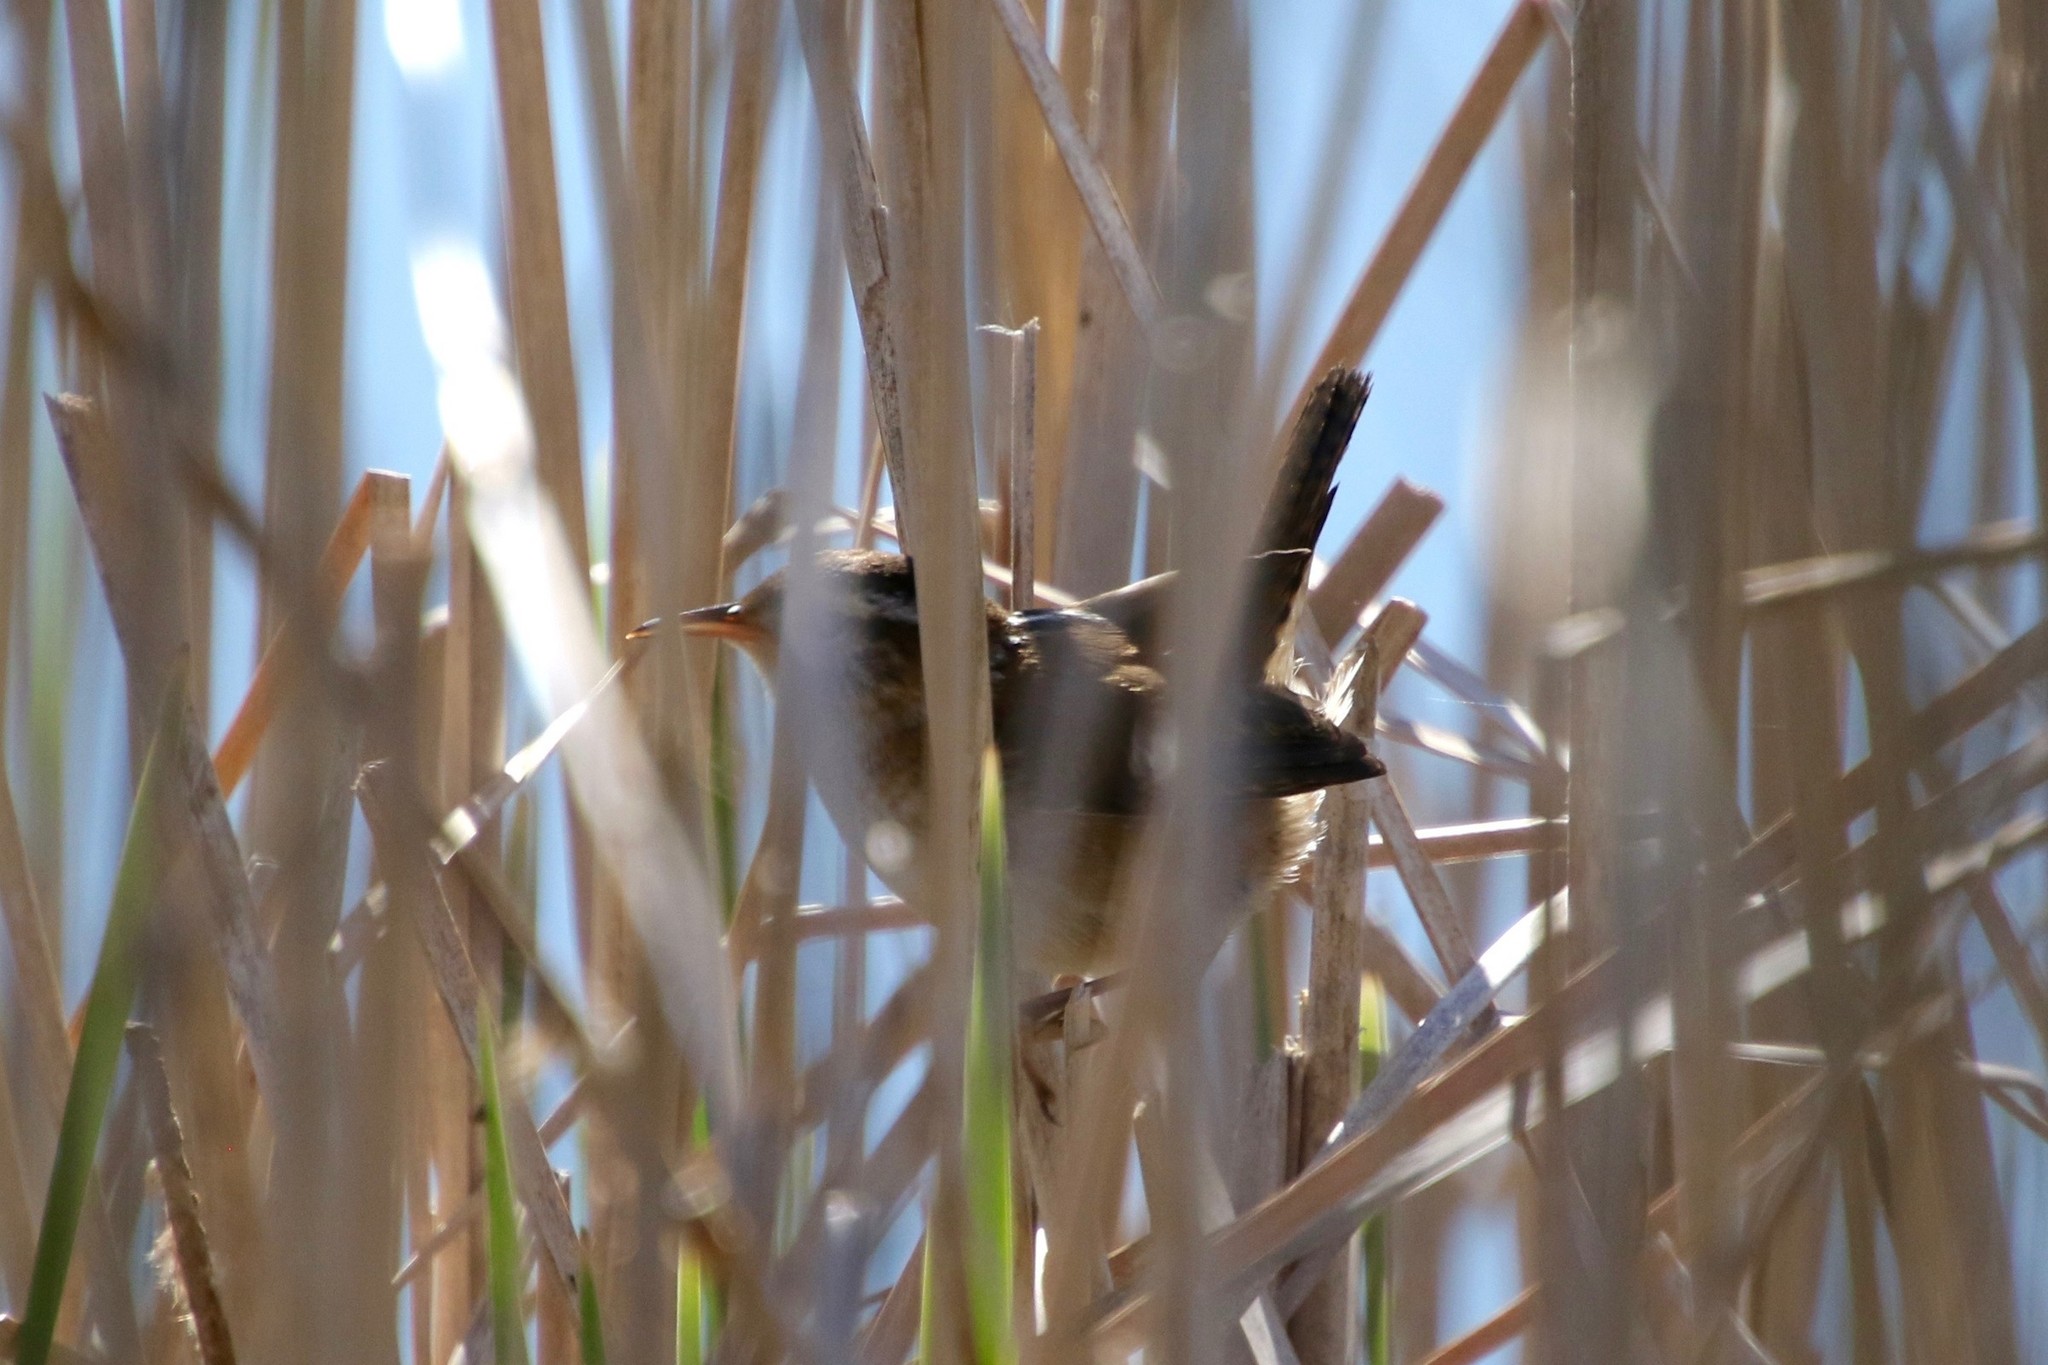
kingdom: Animalia
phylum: Chordata
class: Aves
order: Passeriformes
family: Troglodytidae
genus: Cistothorus
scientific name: Cistothorus palustris
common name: Marsh wren
